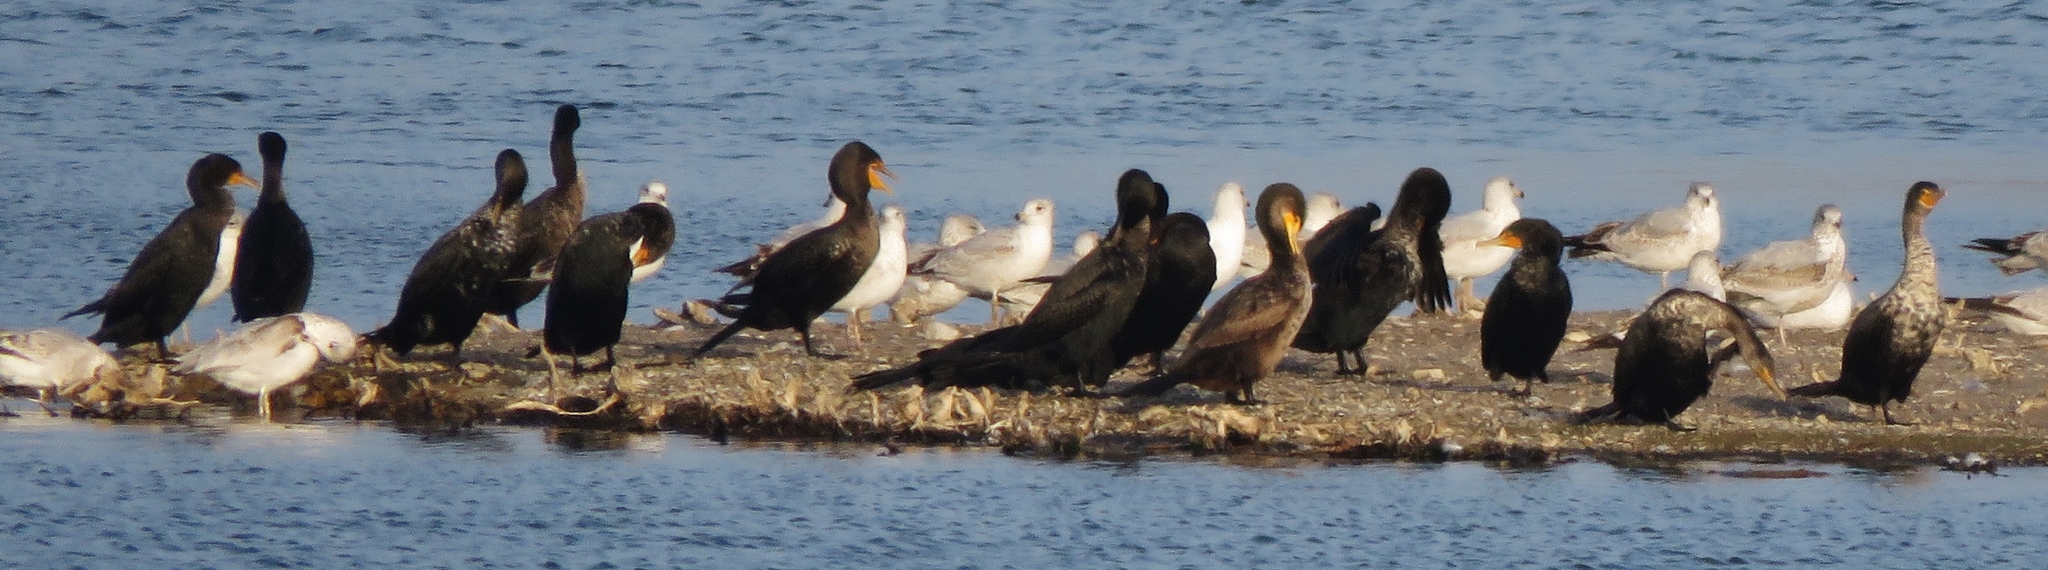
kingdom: Animalia
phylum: Chordata
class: Aves
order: Suliformes
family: Phalacrocoracidae
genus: Phalacrocorax
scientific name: Phalacrocorax auritus
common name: Double-crested cormorant
